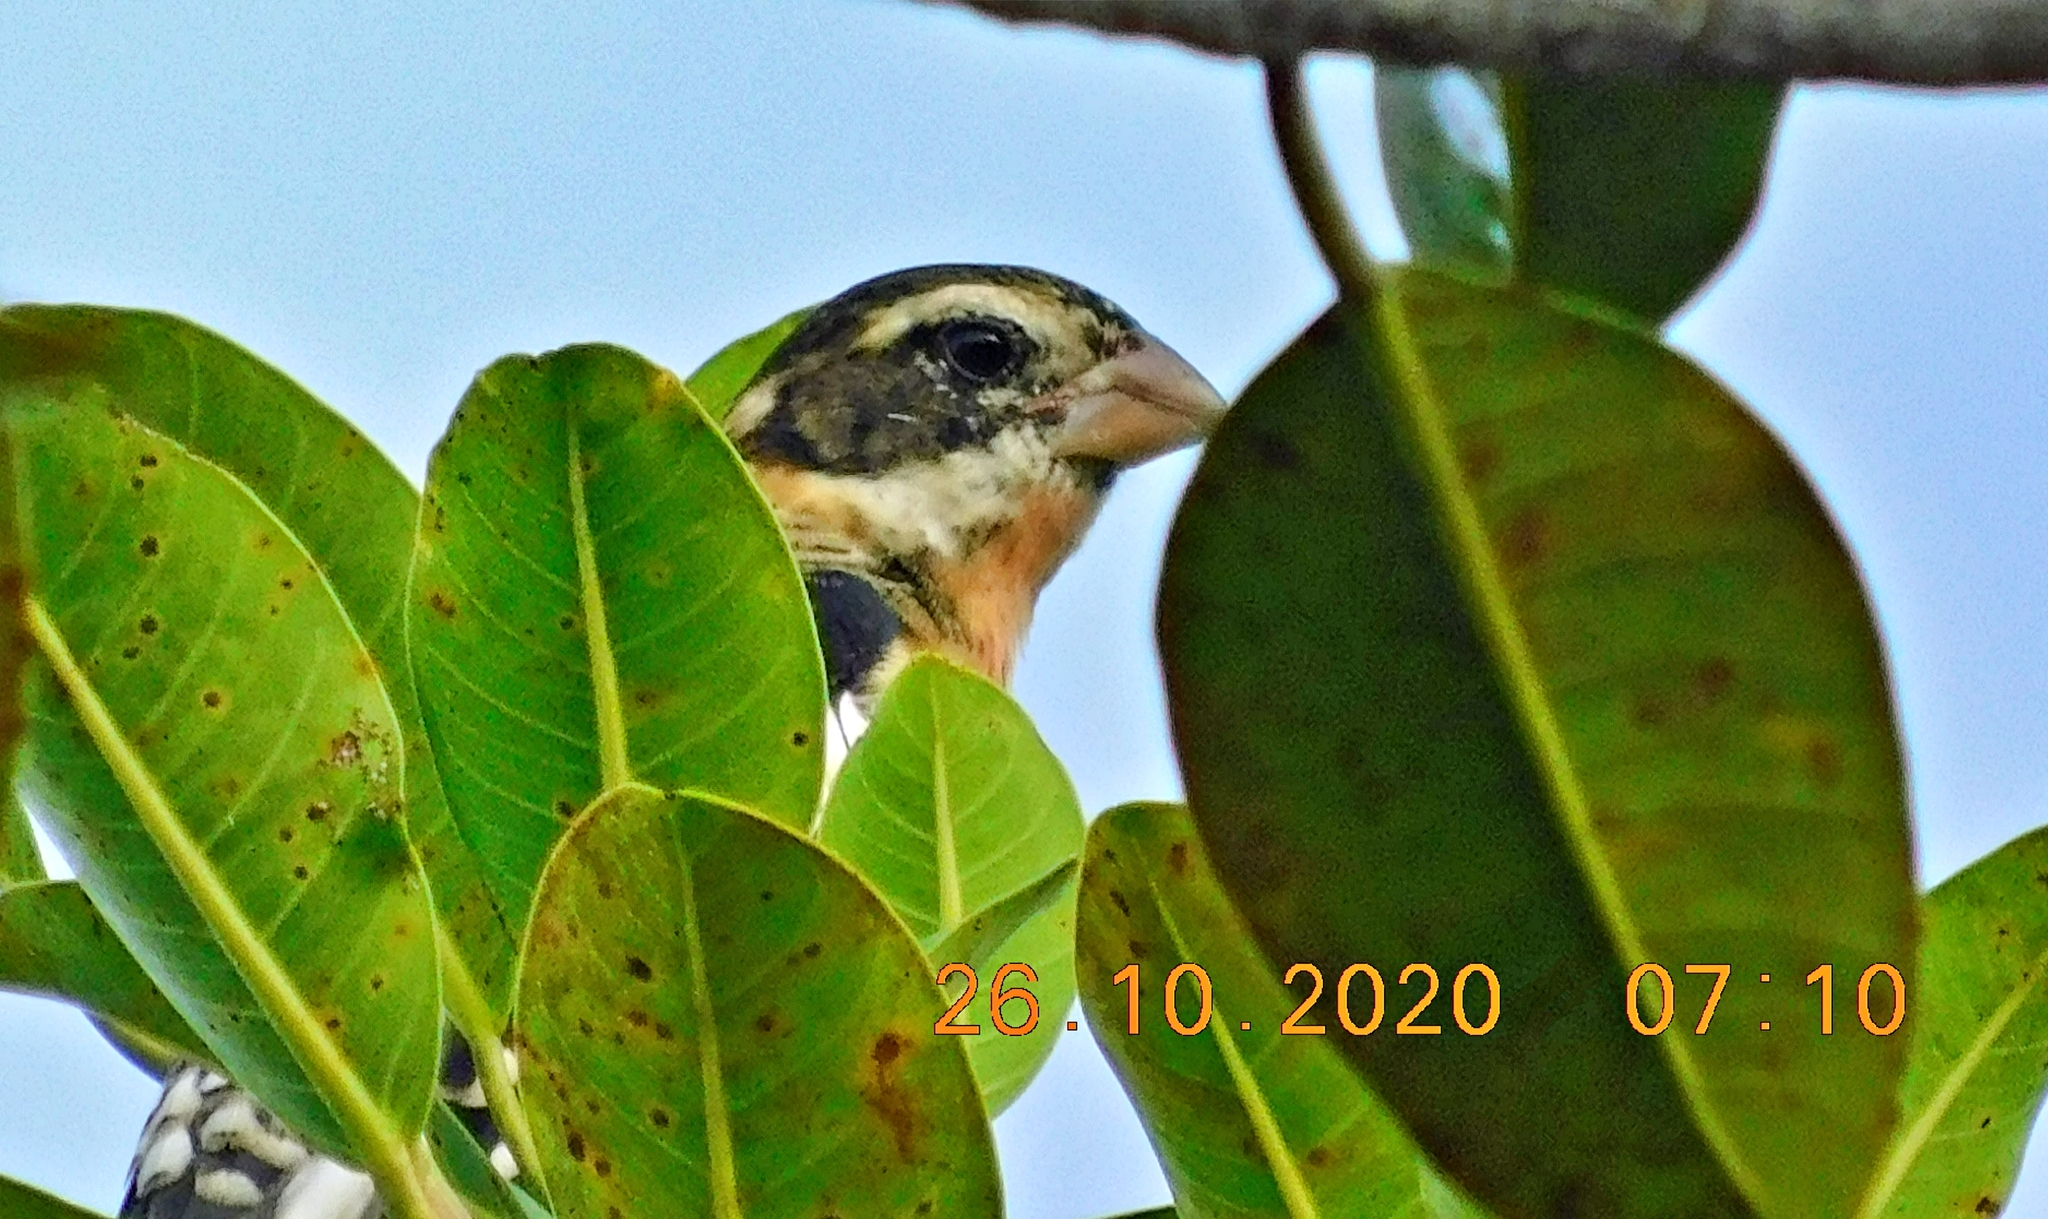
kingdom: Animalia
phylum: Chordata
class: Aves
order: Passeriformes
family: Cardinalidae
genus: Pheucticus
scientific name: Pheucticus ludovicianus
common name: Rose-breasted grosbeak
